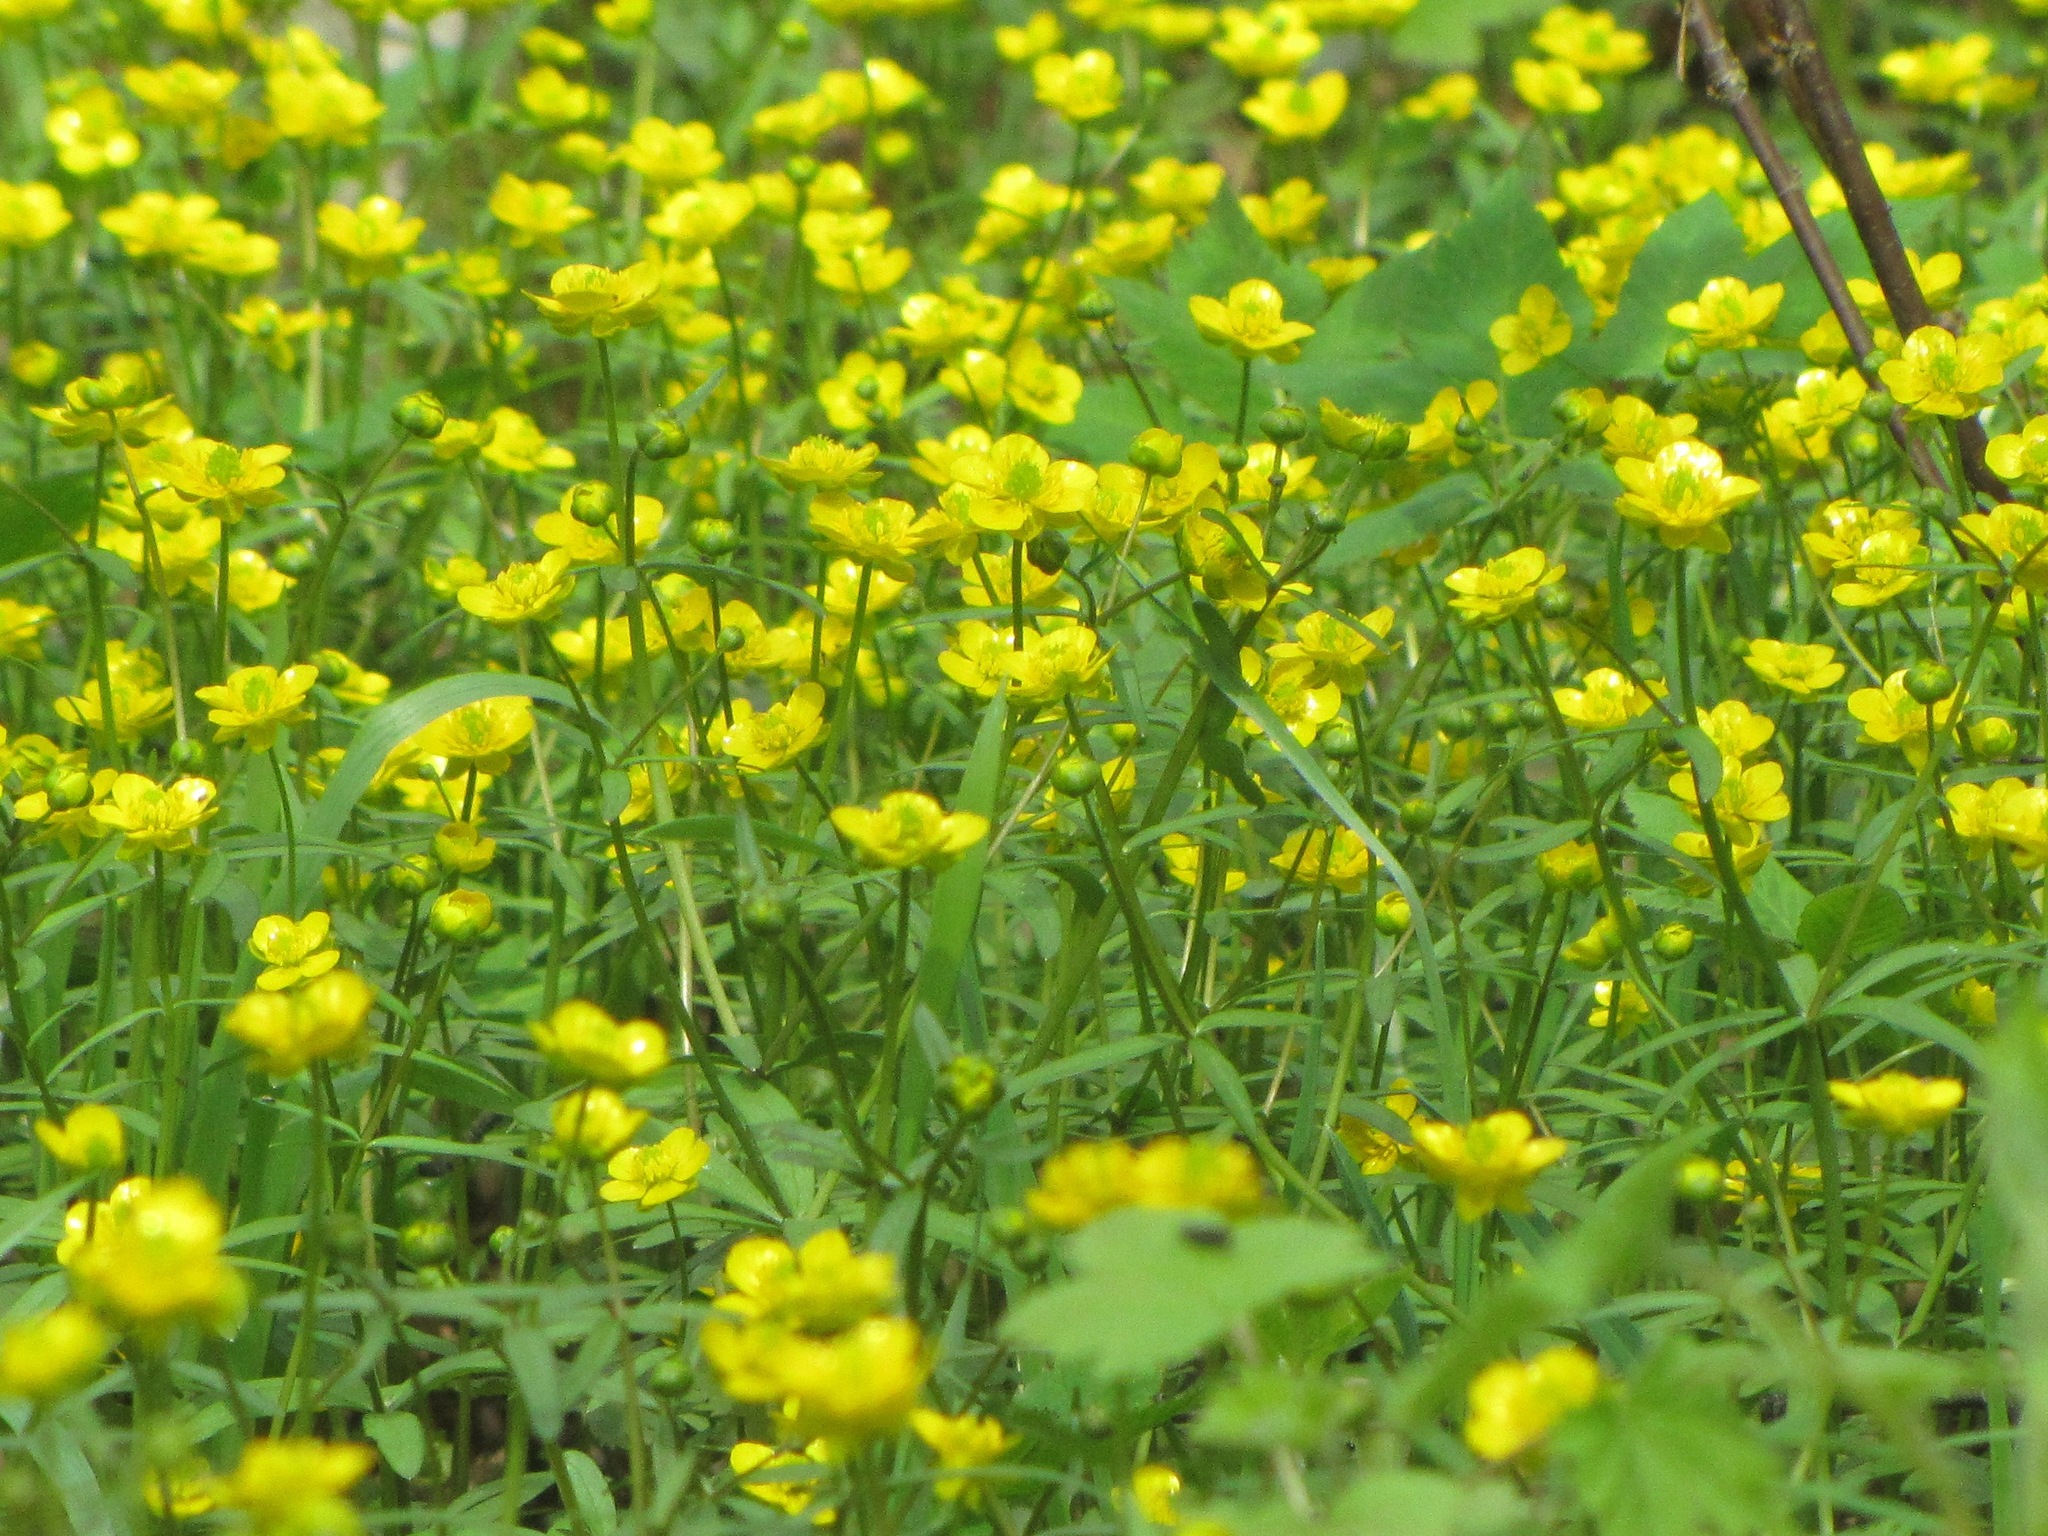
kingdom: Plantae
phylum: Tracheophyta
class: Magnoliopsida
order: Ranunculales
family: Ranunculaceae
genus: Ranunculus
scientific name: Ranunculus monophyllus
